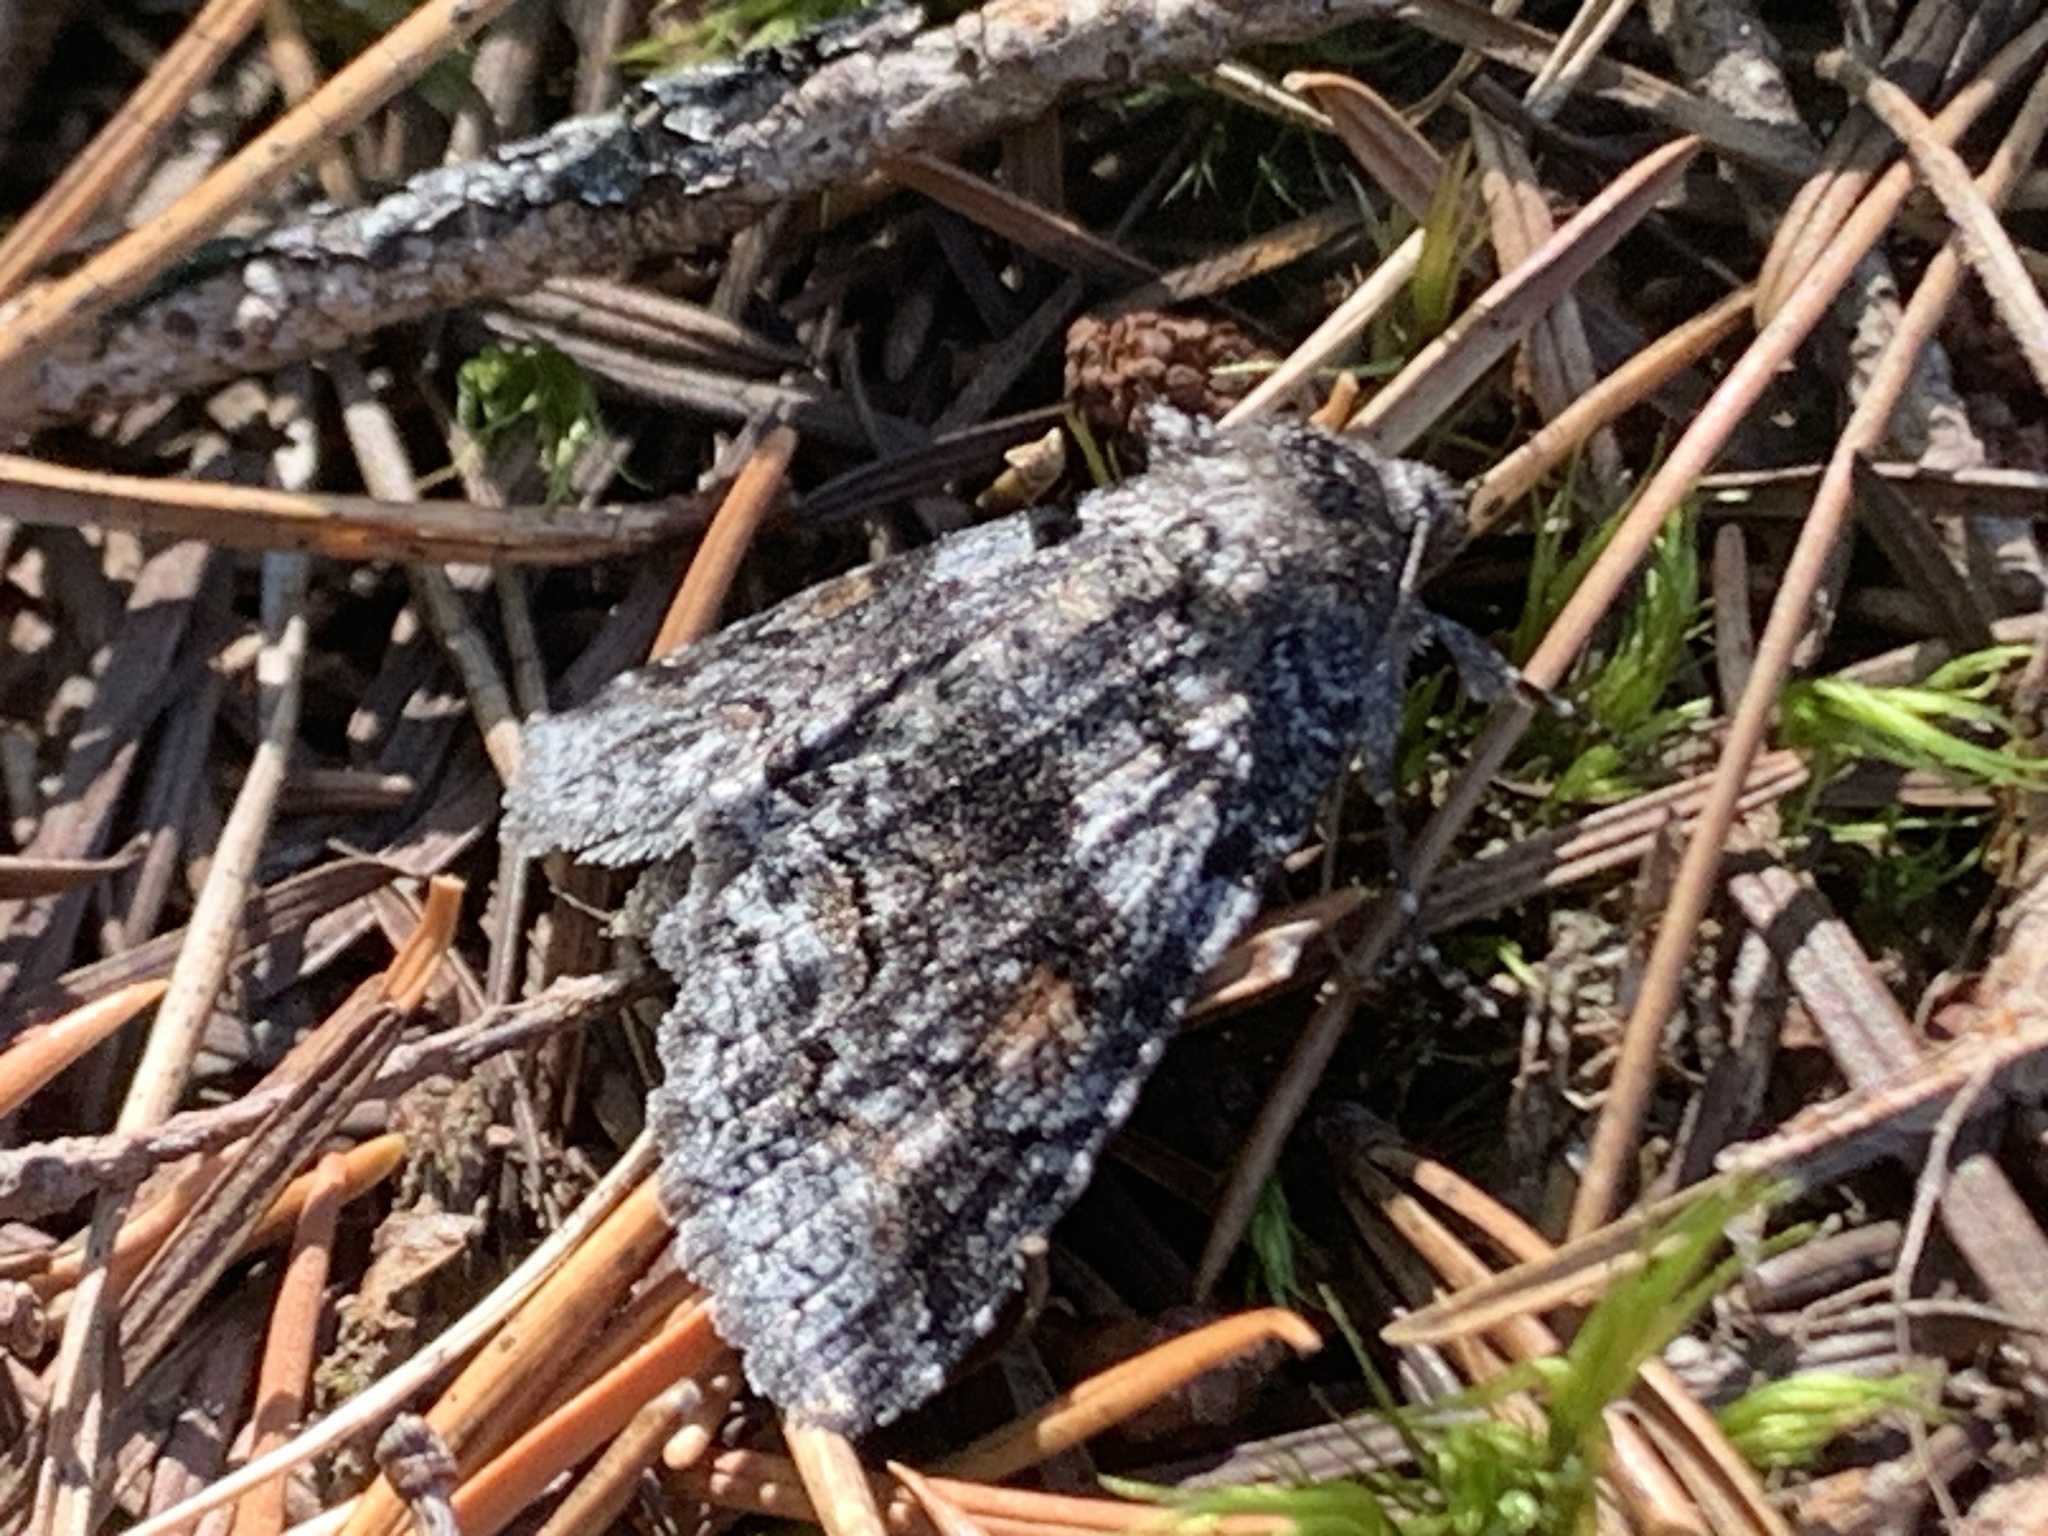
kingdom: Animalia
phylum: Arthropoda
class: Insecta
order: Lepidoptera
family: Erebidae
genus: Zale
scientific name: Zale duplicata
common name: Pine false looper moth
